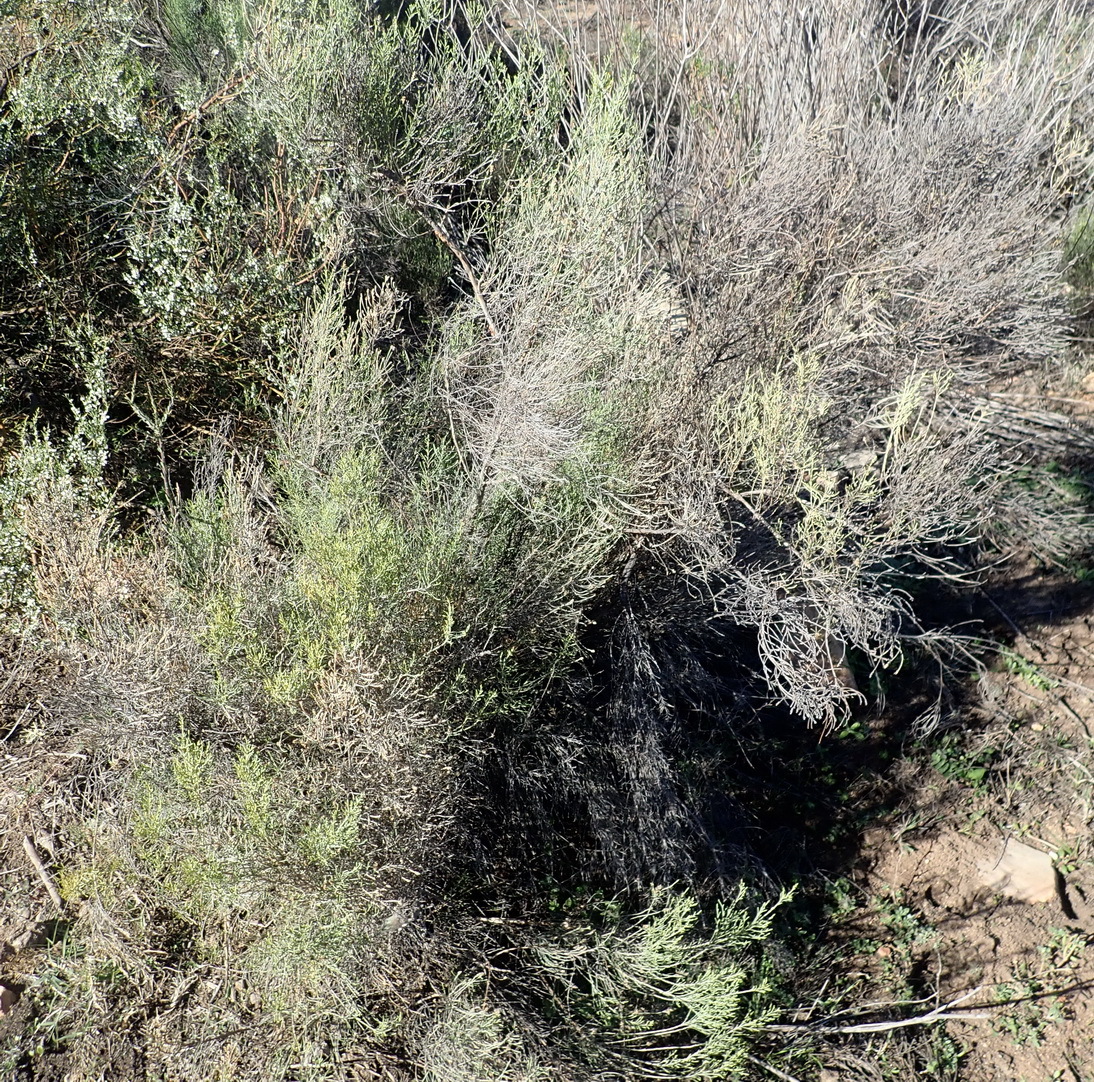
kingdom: Plantae
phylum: Tracheophyta
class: Magnoliopsida
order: Asterales
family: Asteraceae
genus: Dicerothamnus
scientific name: Dicerothamnus rhinocerotis
